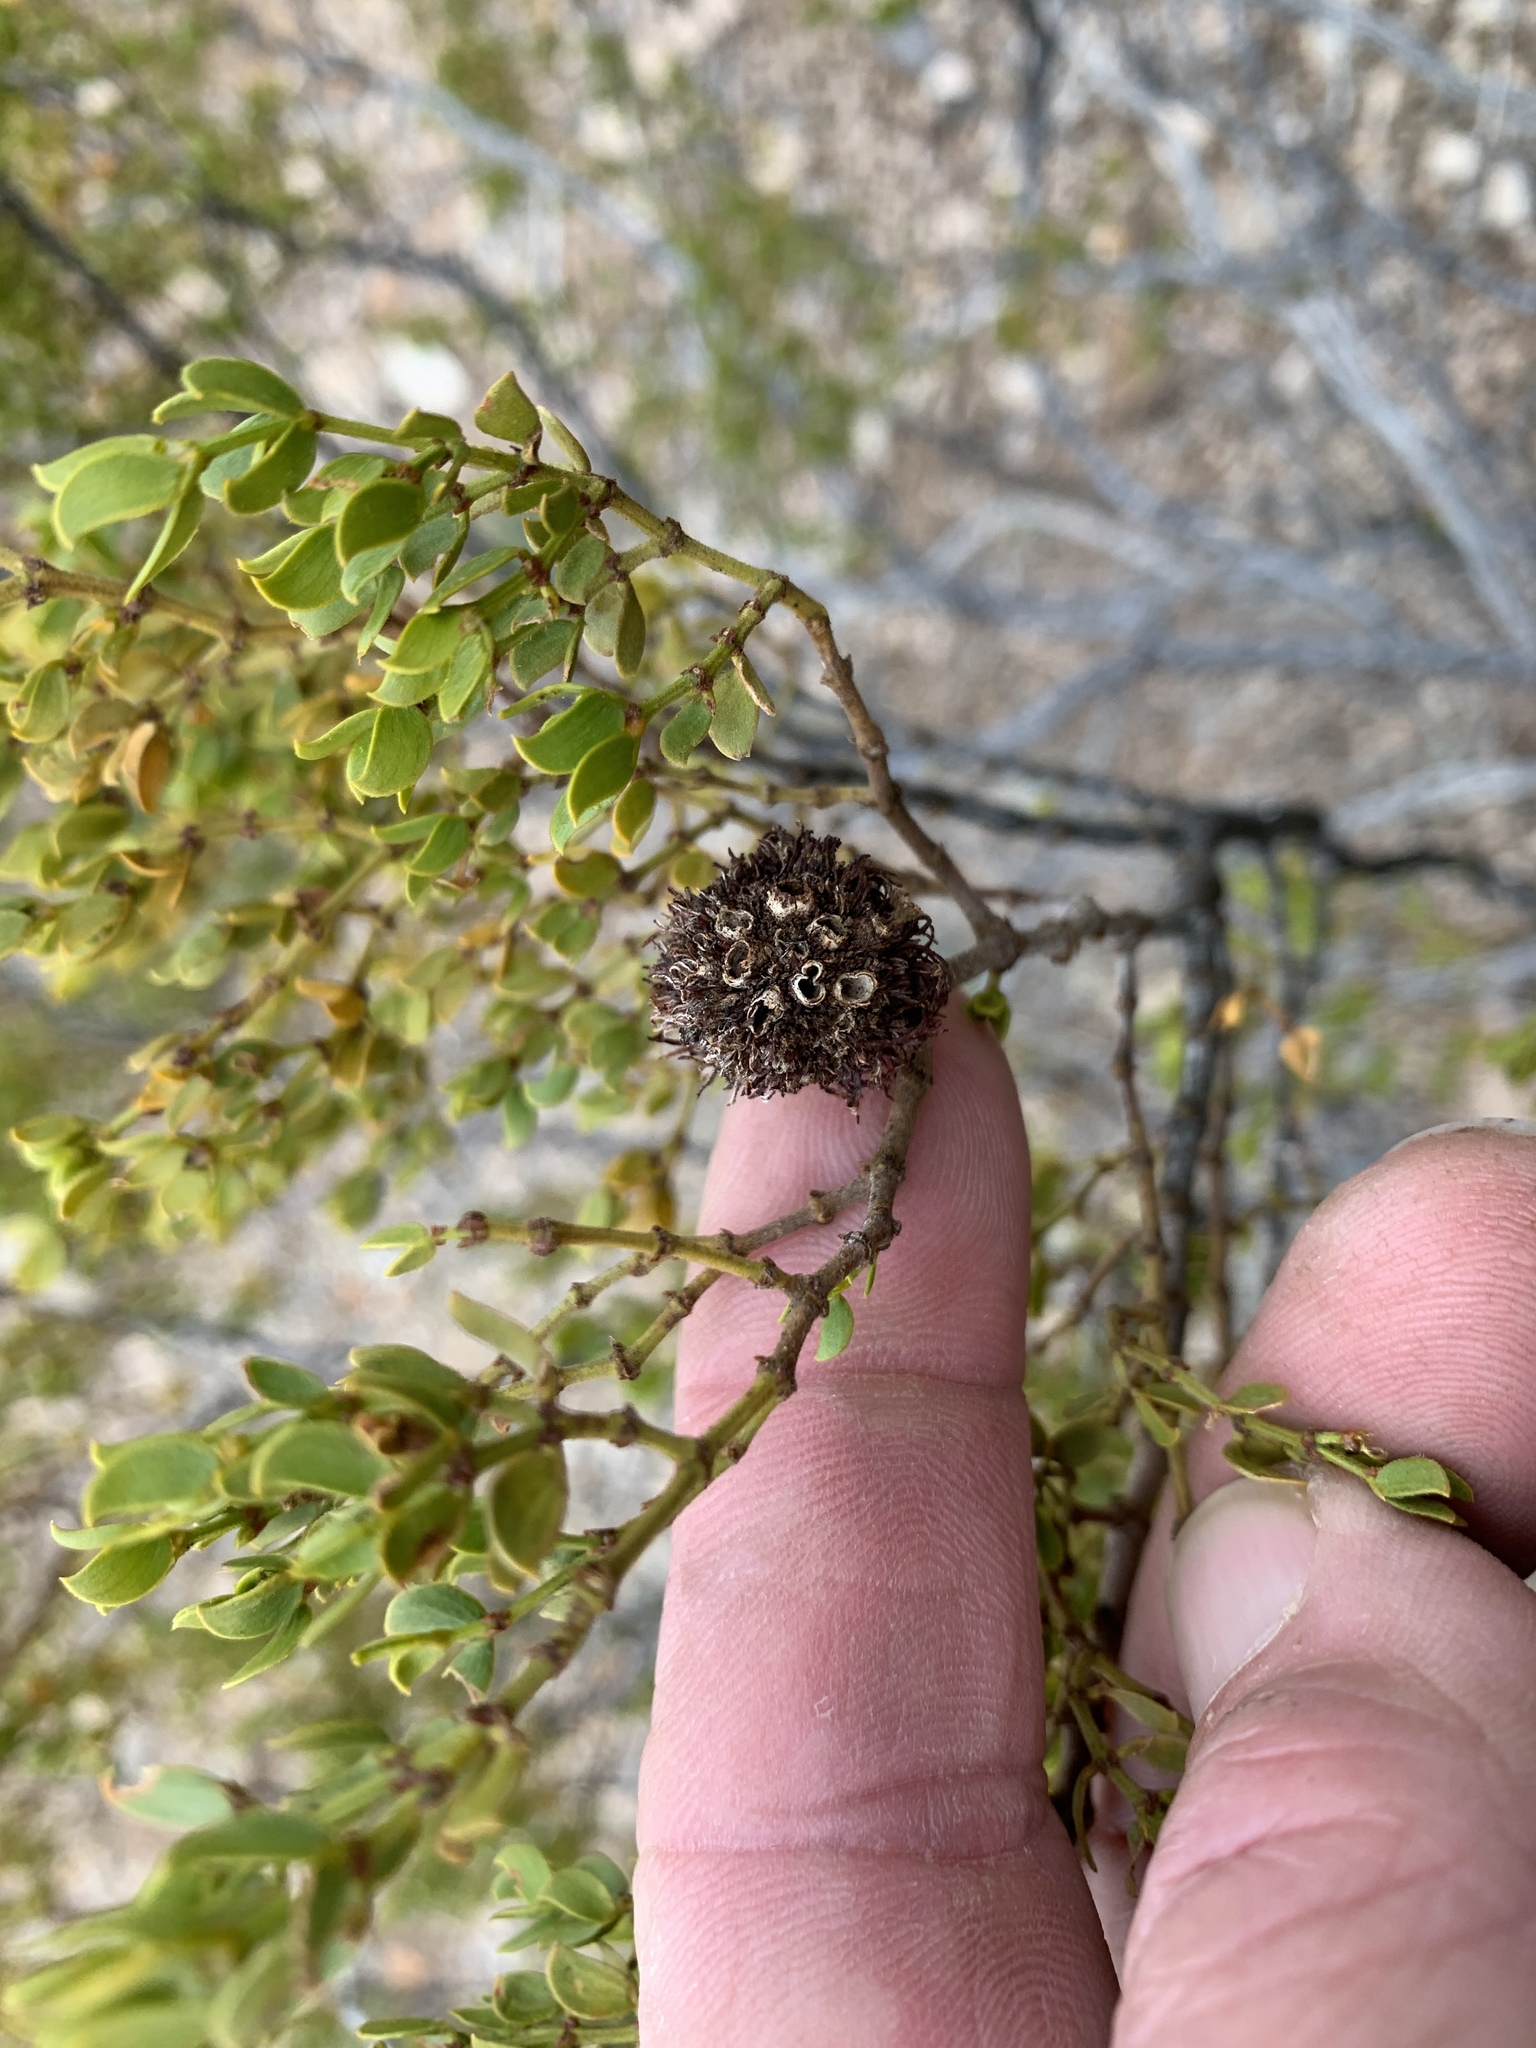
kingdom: Animalia
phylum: Arthropoda
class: Insecta
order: Diptera
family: Cecidomyiidae
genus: Asphondylia
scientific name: Asphondylia auripila
